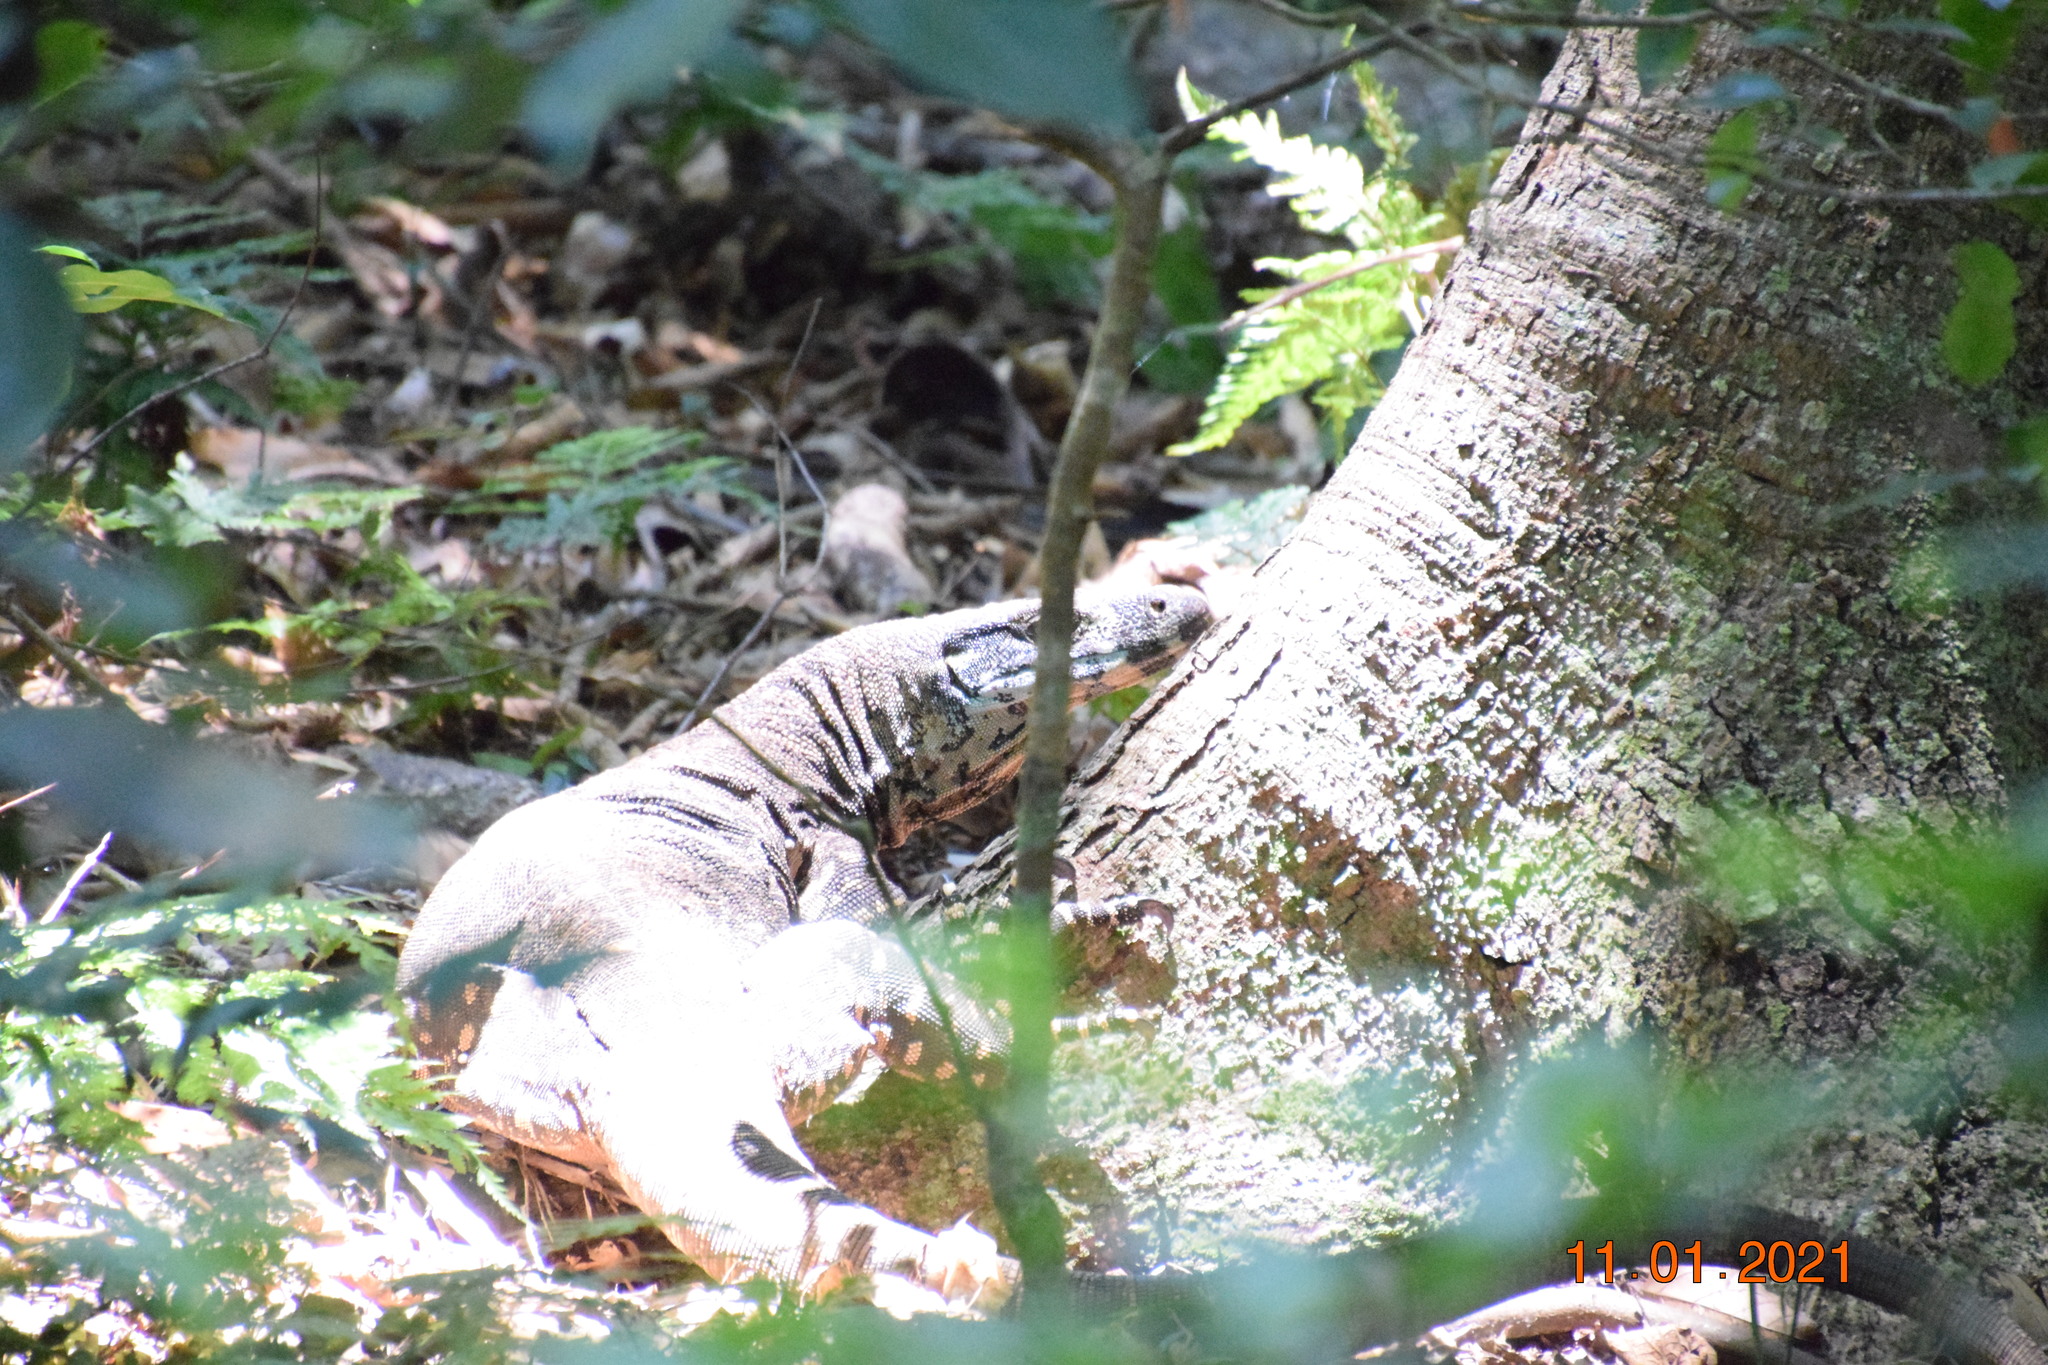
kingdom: Animalia
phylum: Chordata
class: Squamata
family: Varanidae
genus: Varanus
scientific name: Varanus varius
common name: Lace monitor
